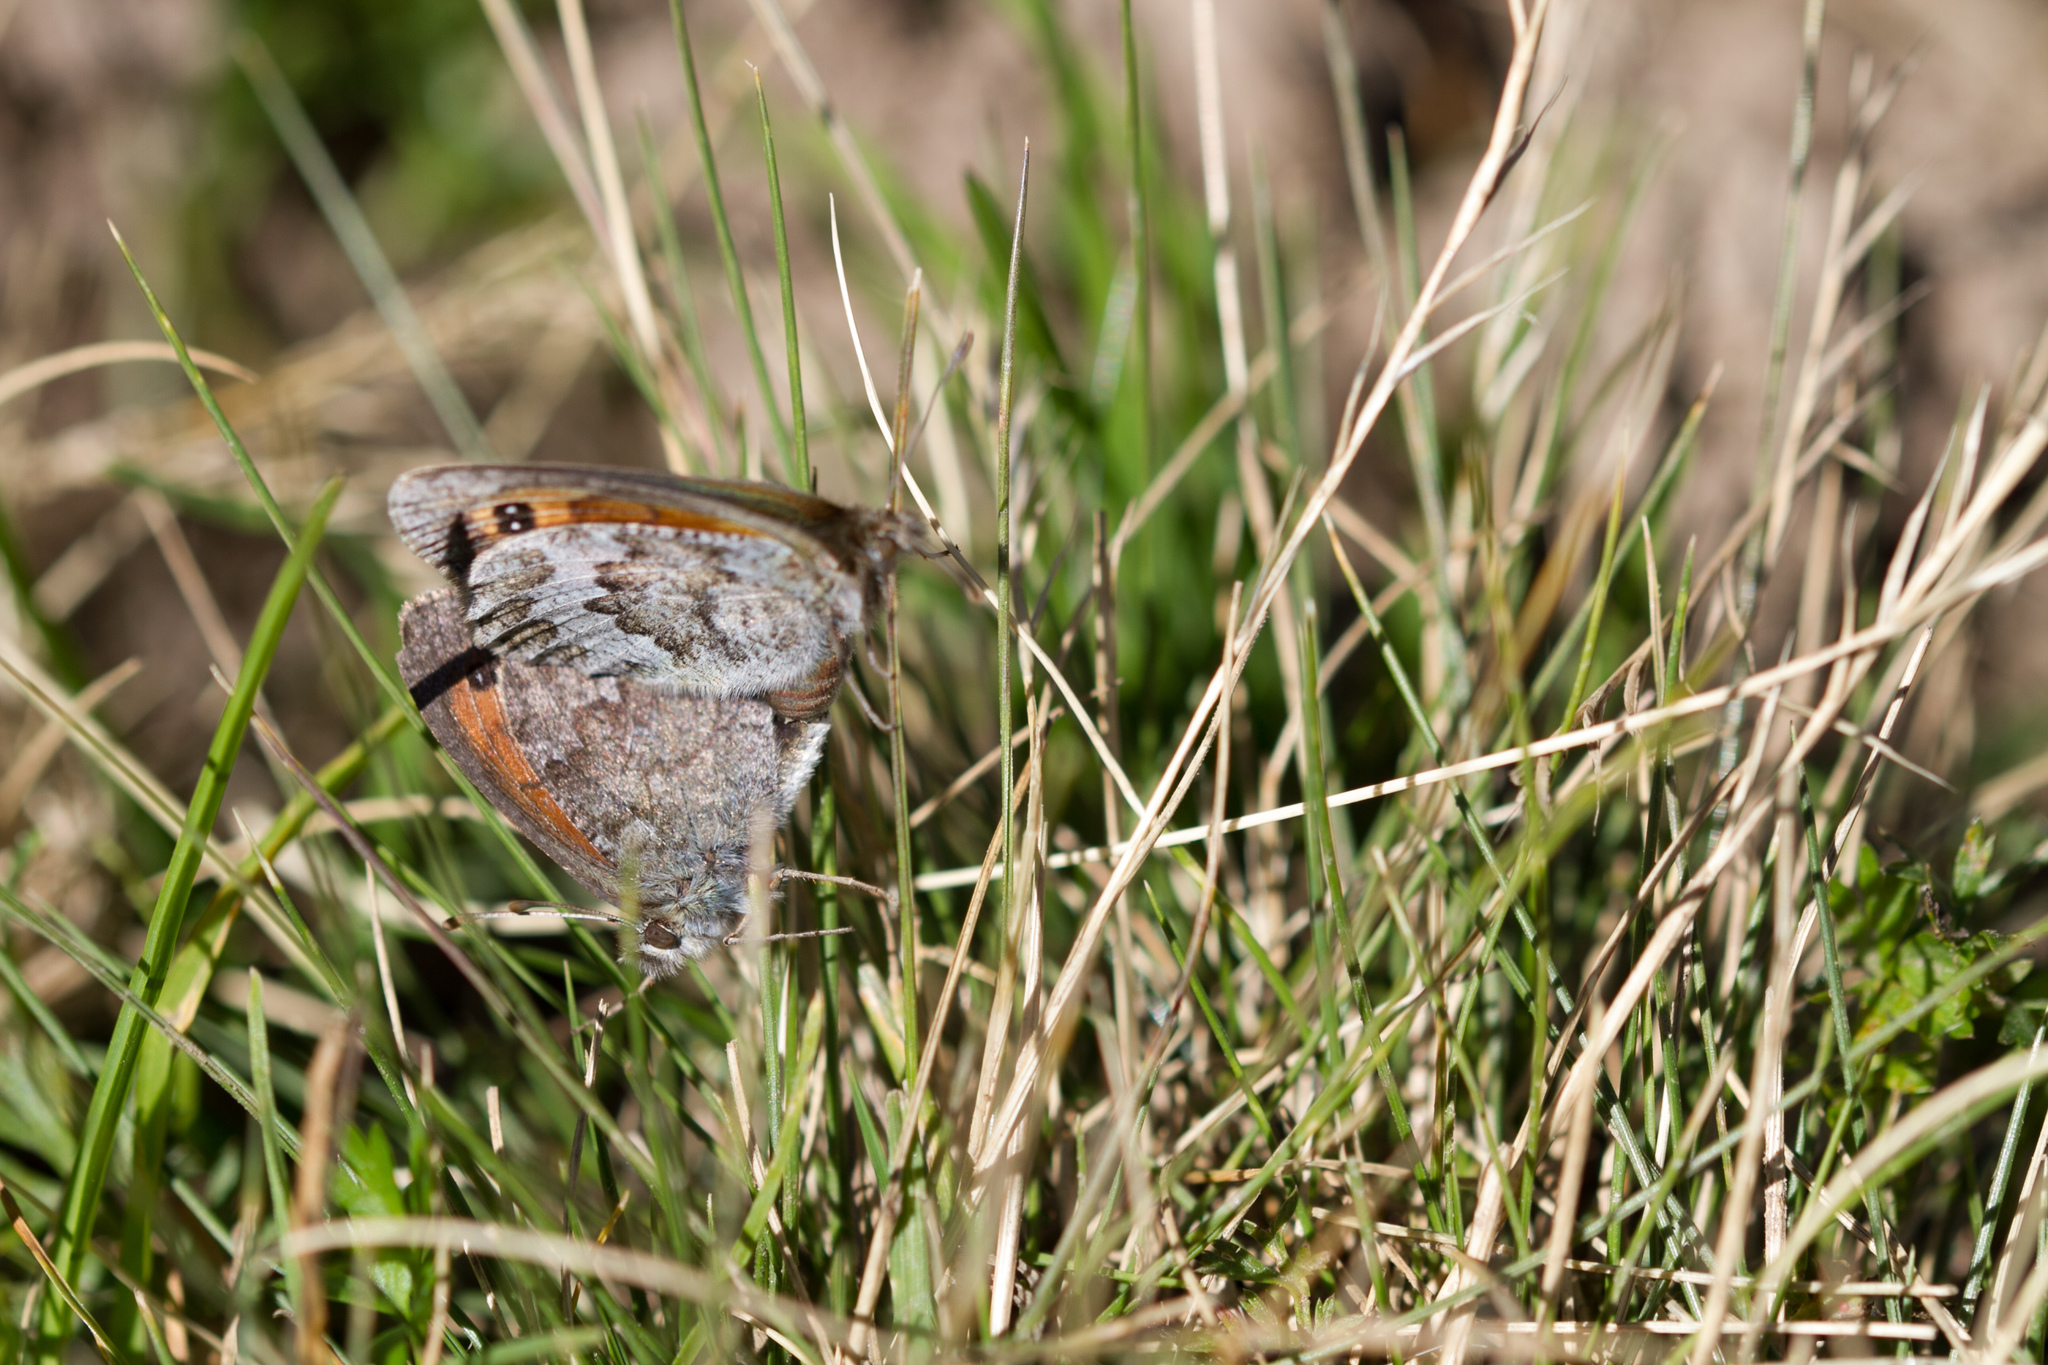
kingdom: Animalia
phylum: Arthropoda
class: Insecta
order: Lepidoptera
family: Nymphalidae
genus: Erebia
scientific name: Erebia tyndarus
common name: Swiss brassy ringlet
